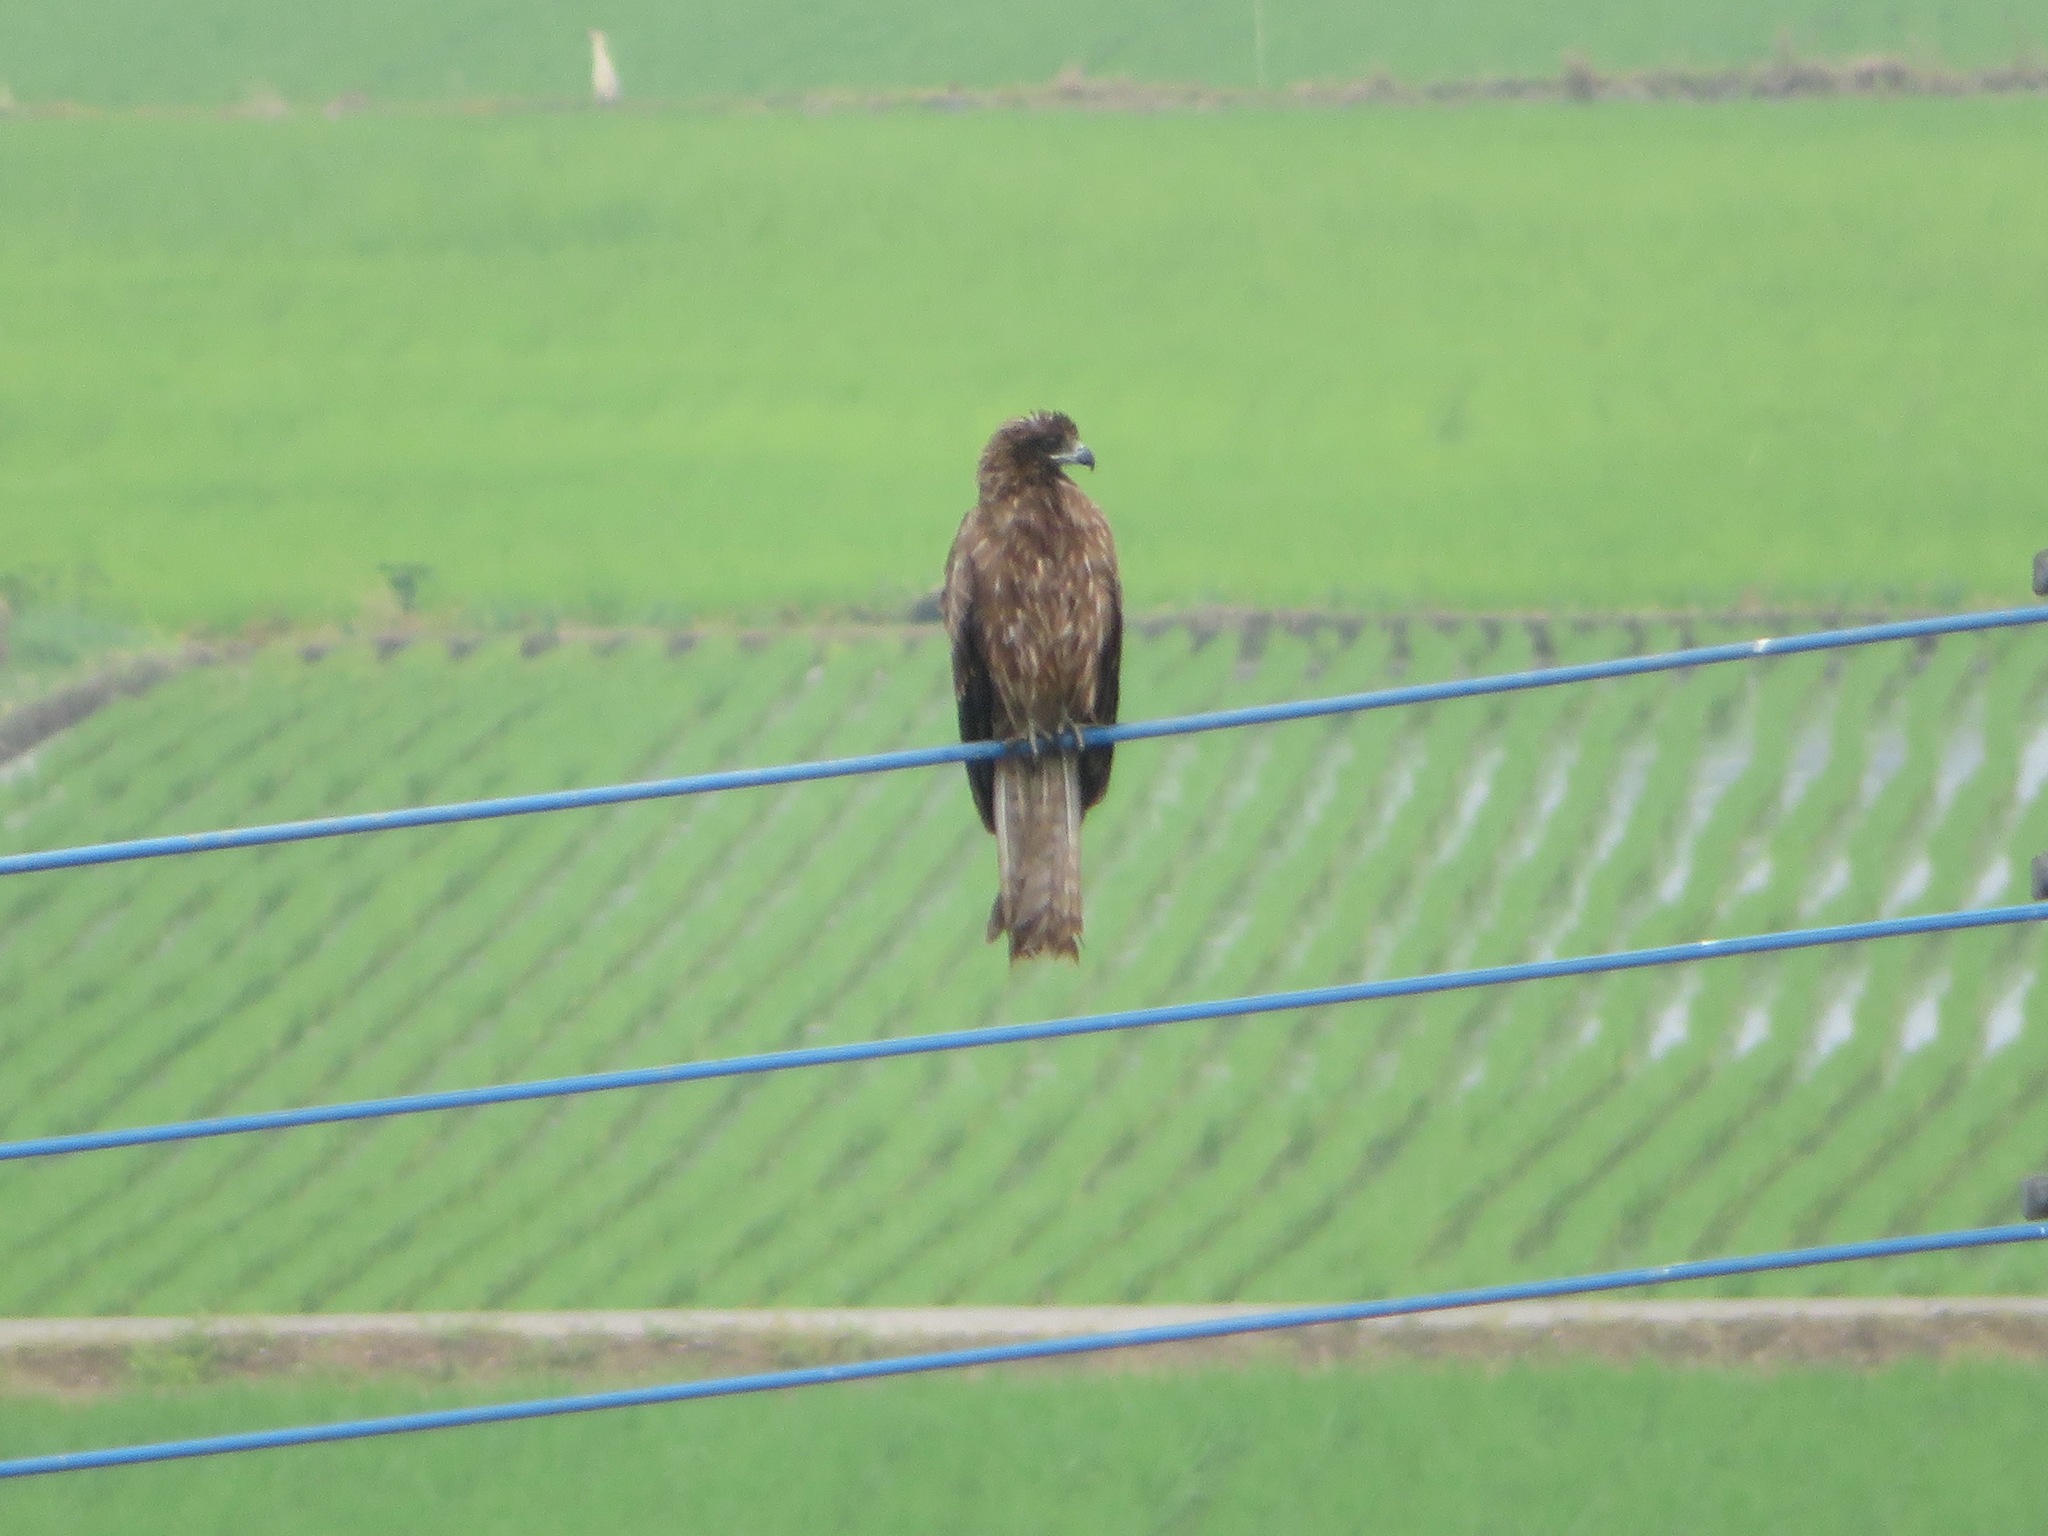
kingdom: Animalia
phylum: Chordata
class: Aves
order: Accipitriformes
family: Accipitridae
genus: Milvus
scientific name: Milvus migrans
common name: Black kite
